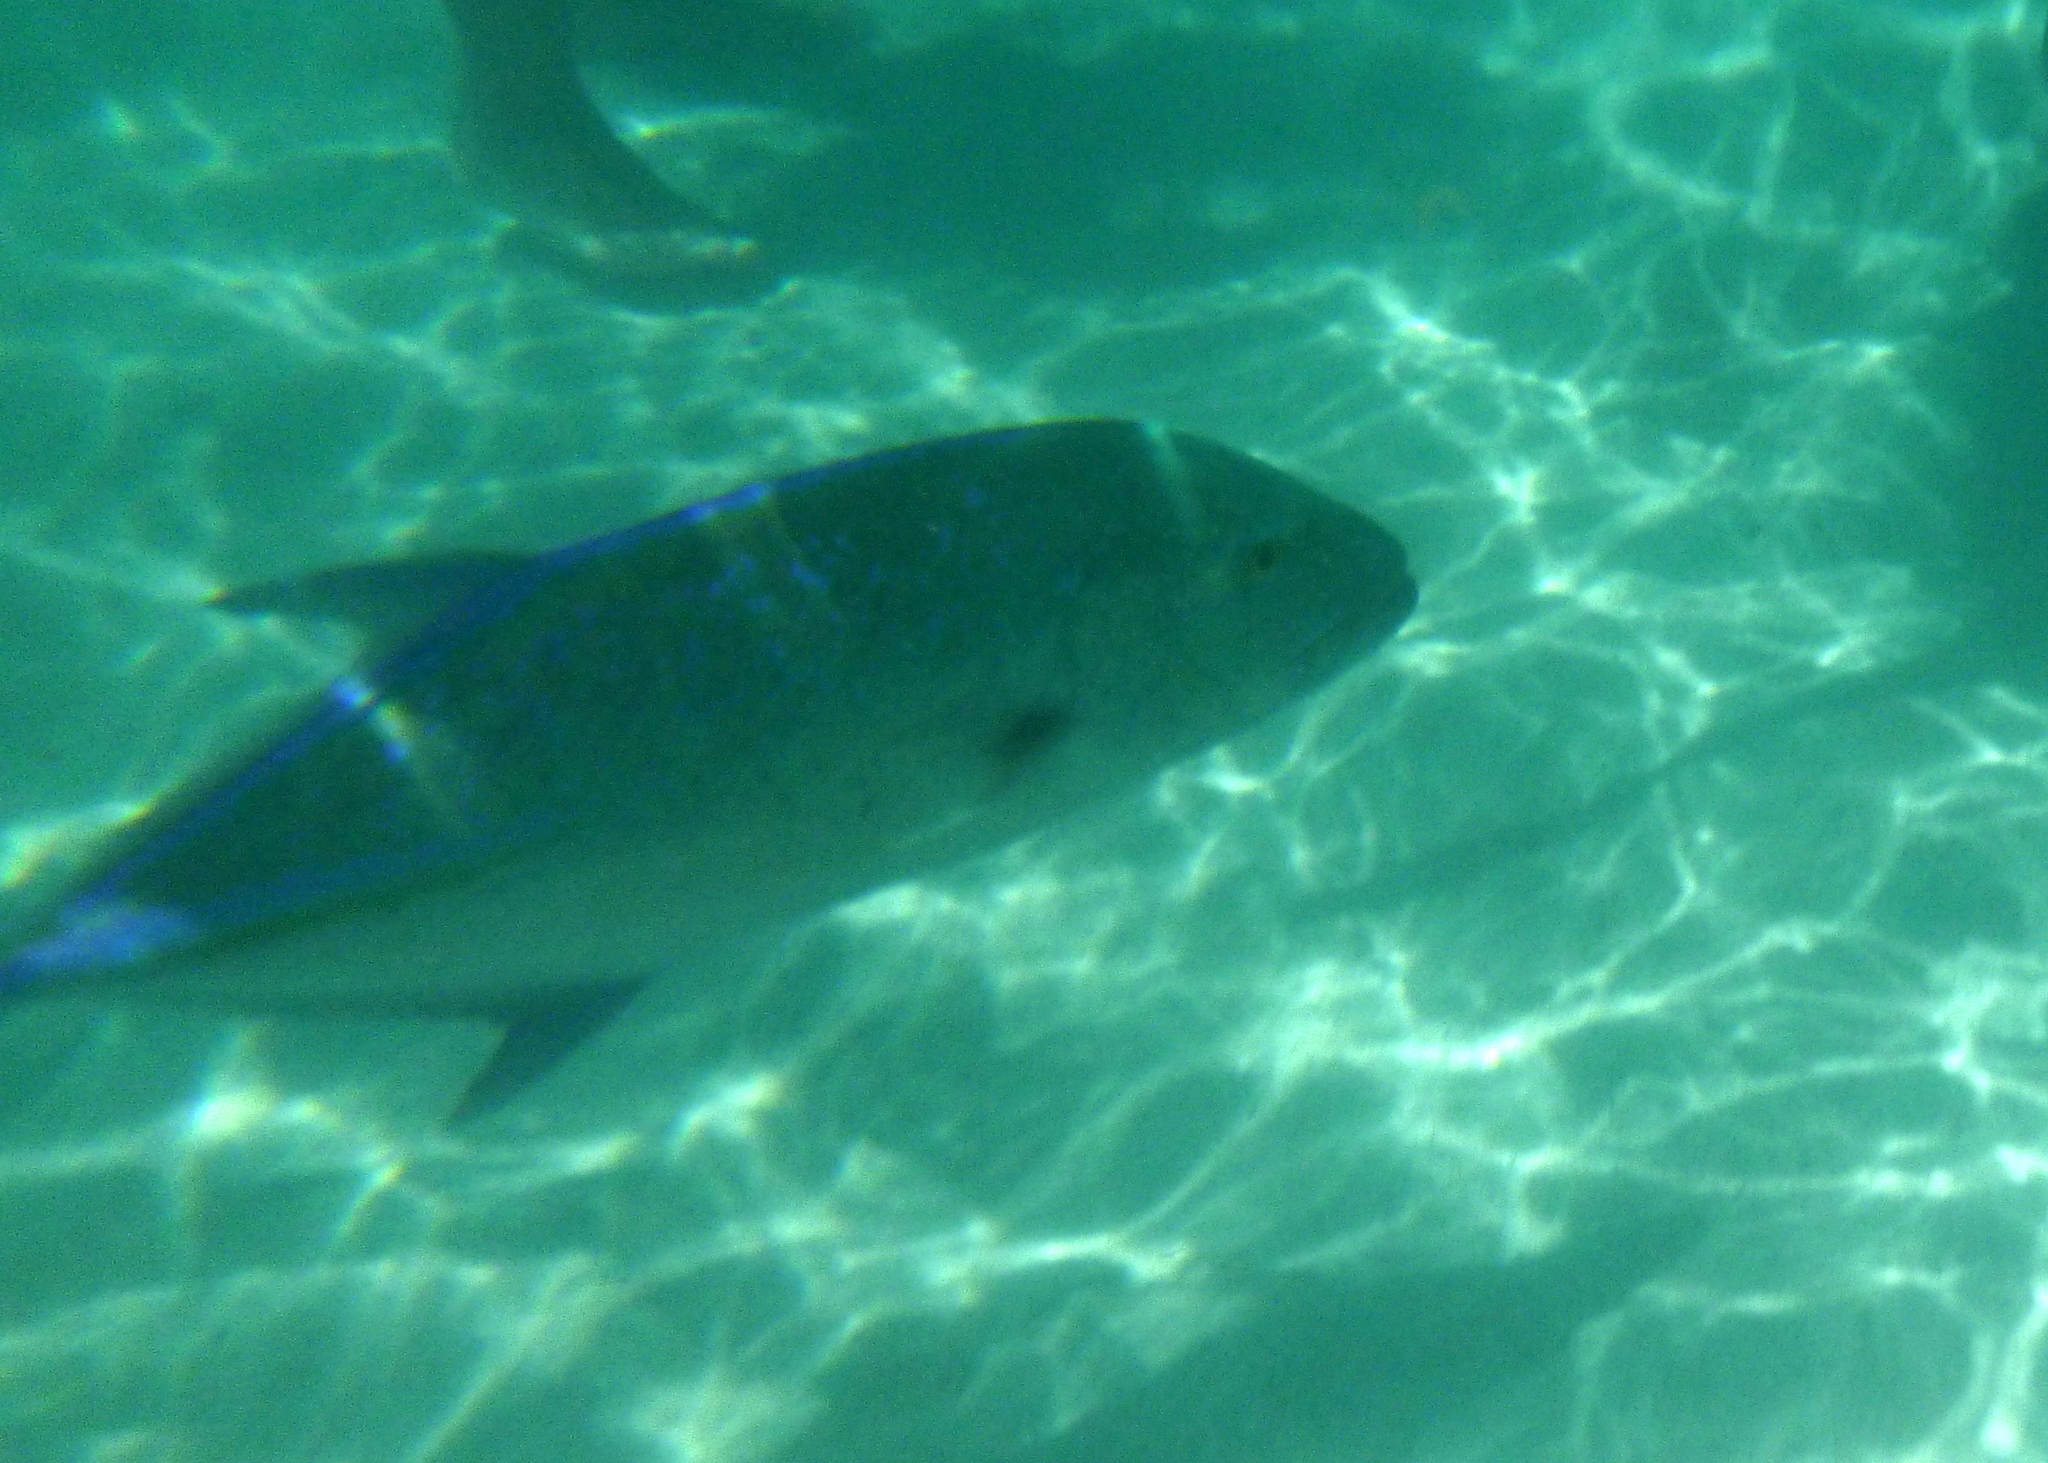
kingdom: Animalia
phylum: Chordata
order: Perciformes
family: Carangidae
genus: Caranx
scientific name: Caranx melampygus
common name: Bluefin trevally
